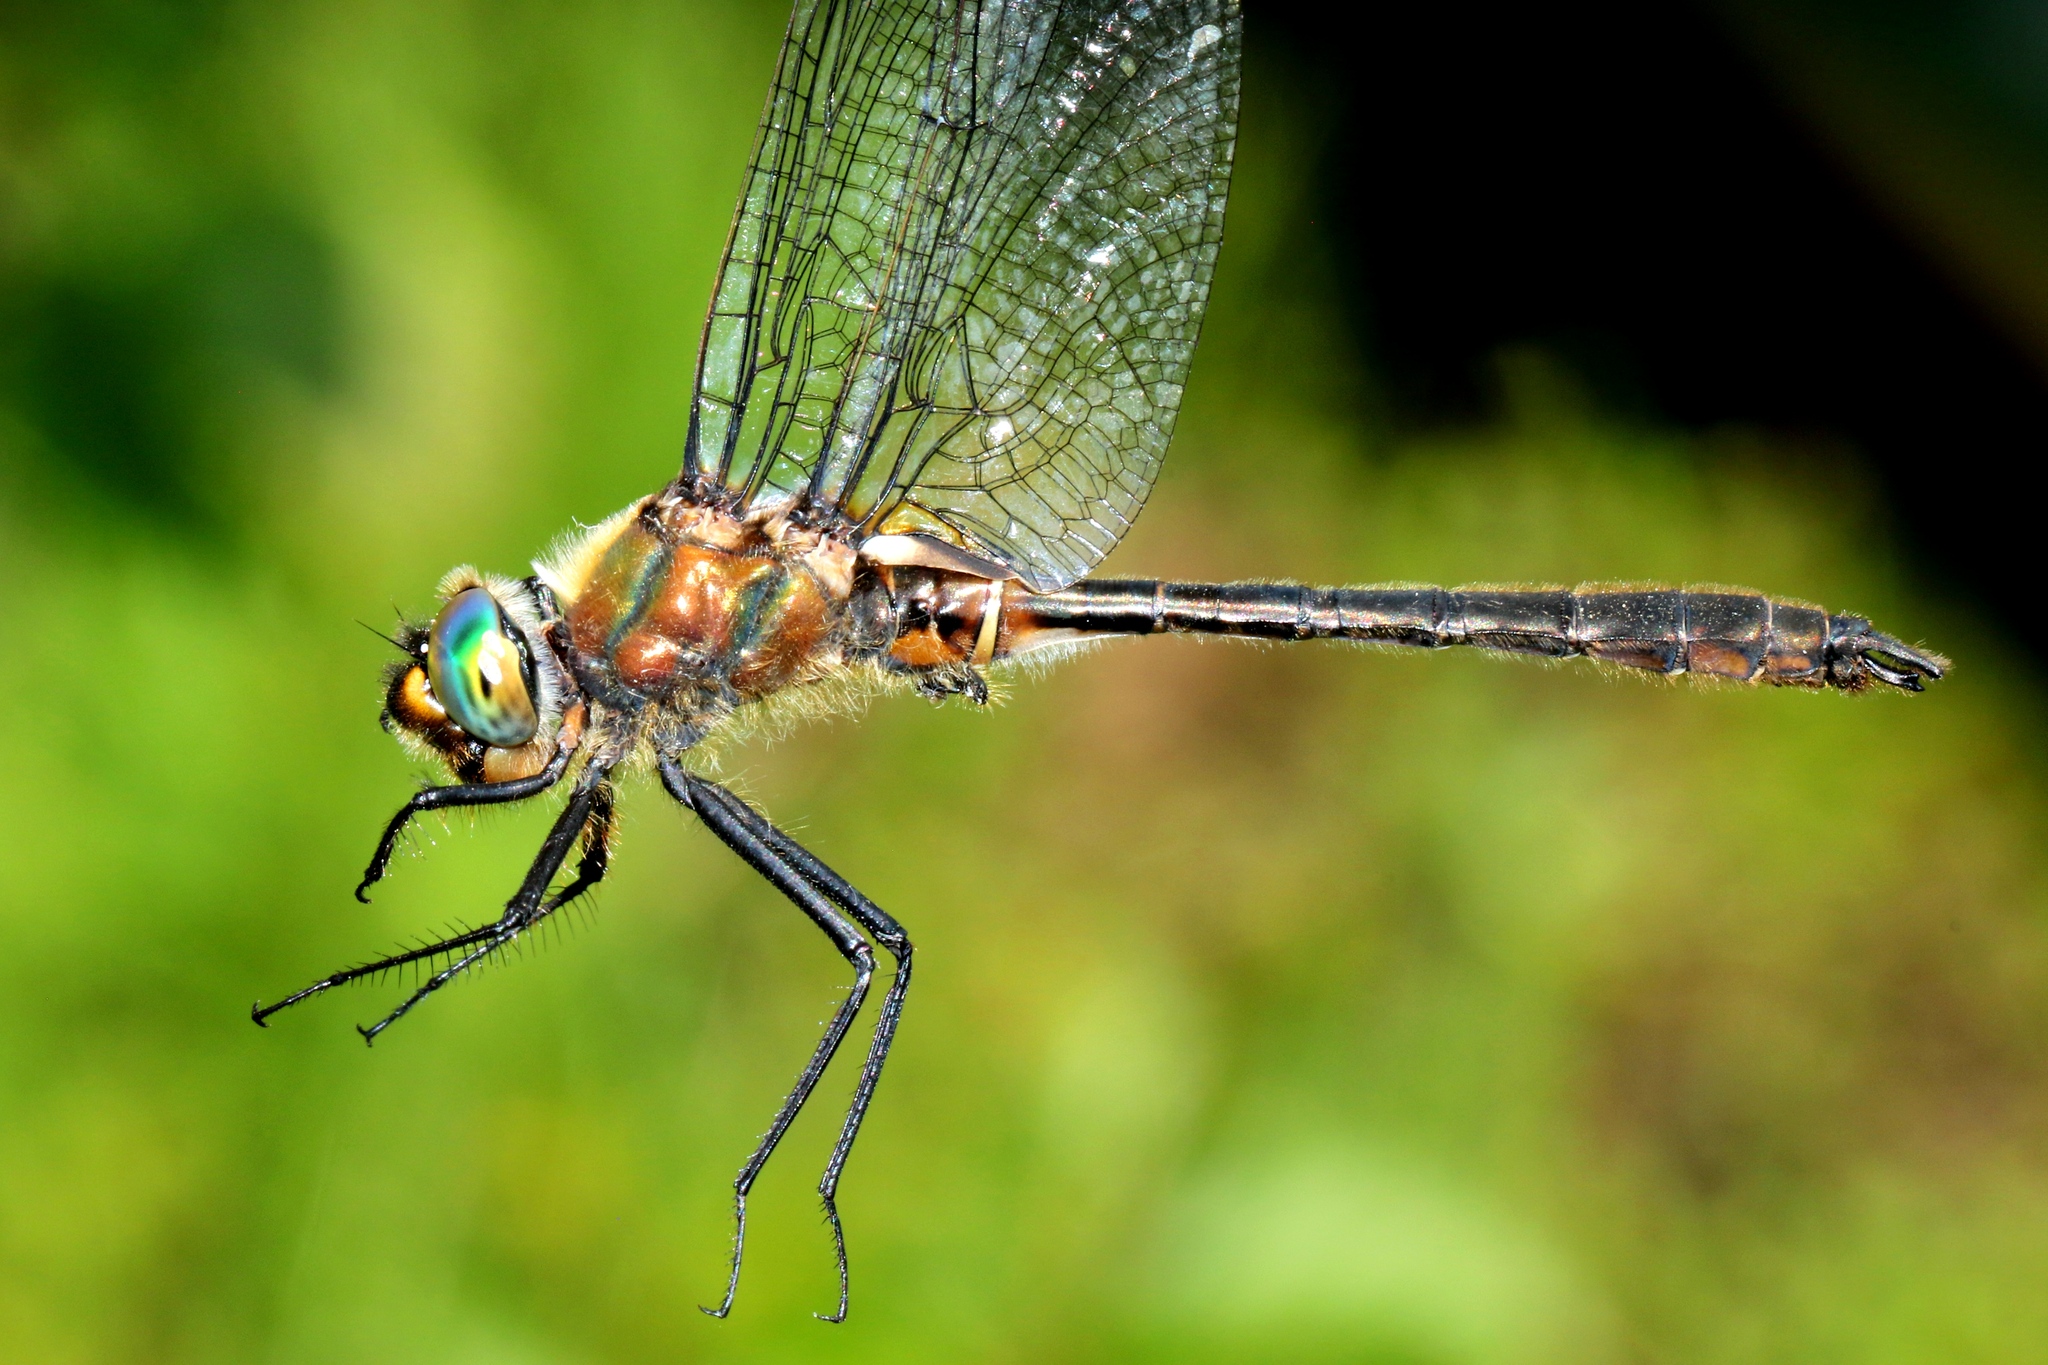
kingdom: Animalia
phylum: Arthropoda
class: Insecta
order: Odonata
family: Corduliidae
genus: Cordulia
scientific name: Cordulia shurtleffii
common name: American emerald
